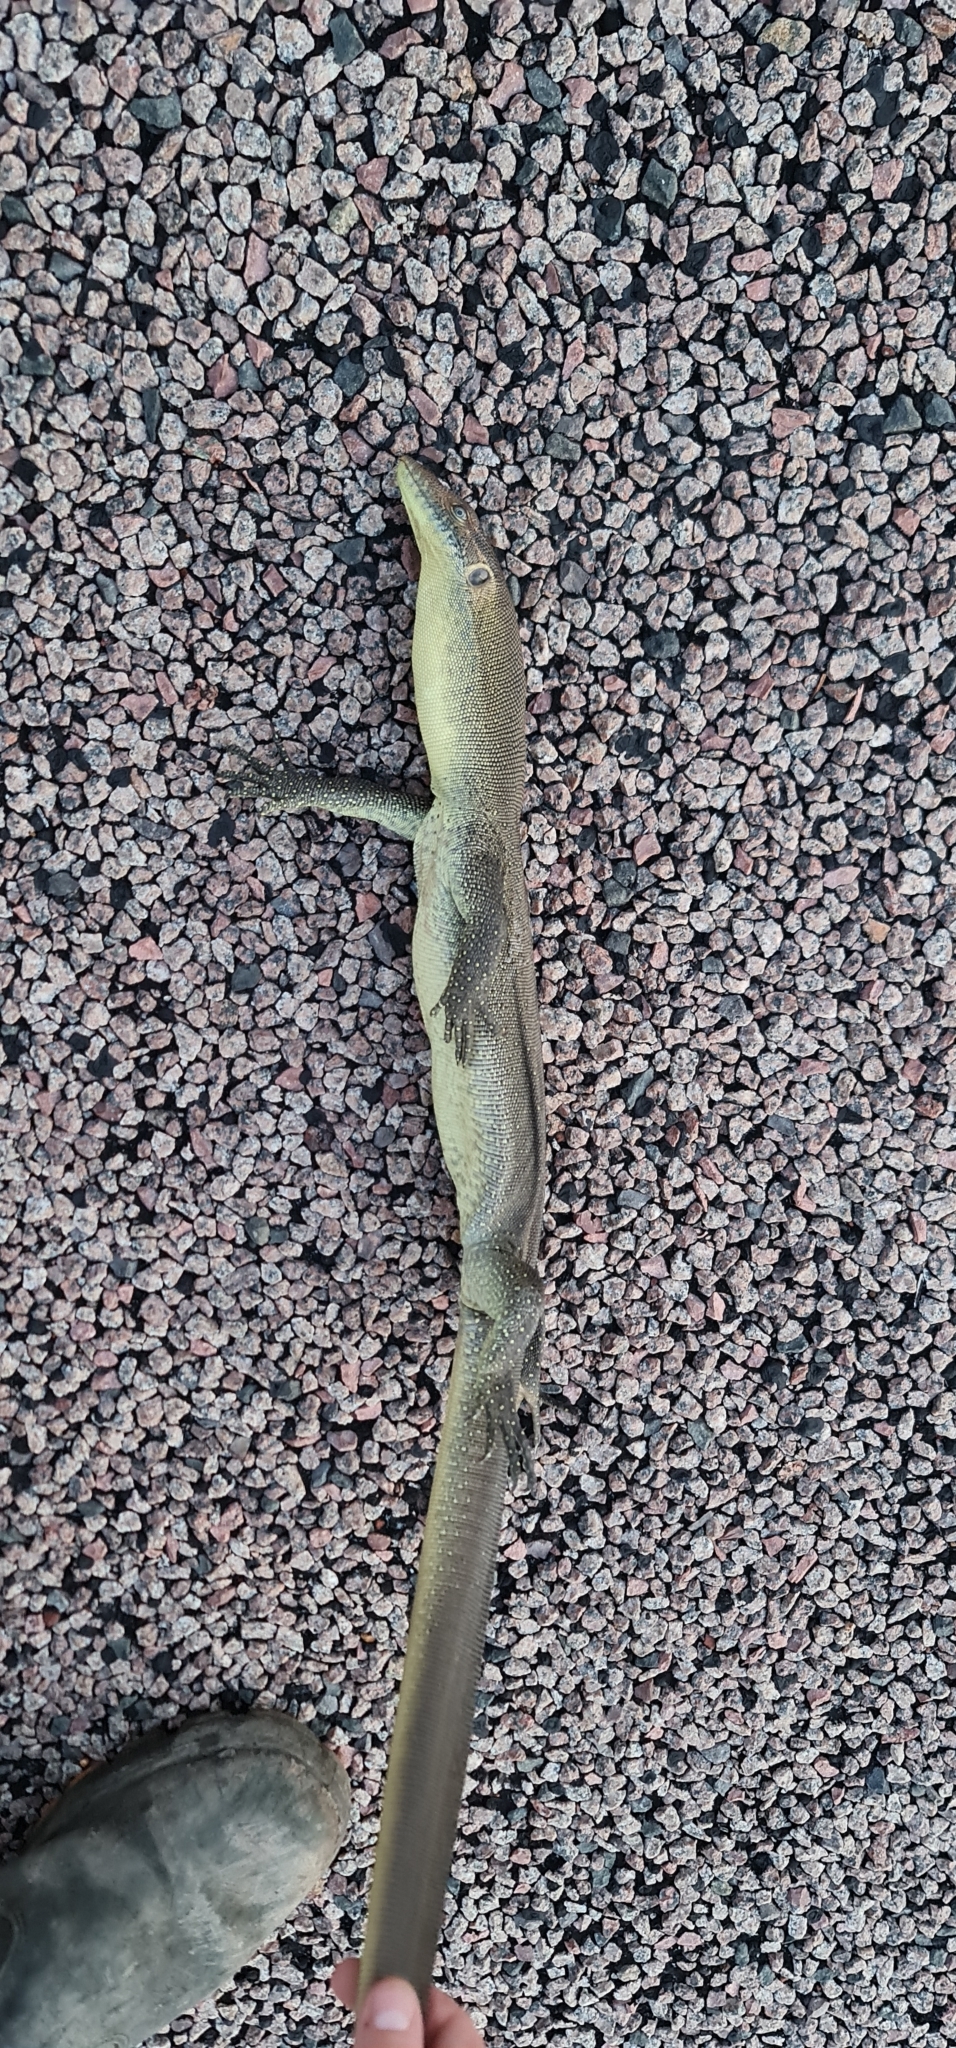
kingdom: Animalia
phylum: Chordata
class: Squamata
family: Varanidae
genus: Varanus
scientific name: Varanus mertensi
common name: Mertens's water monitor
